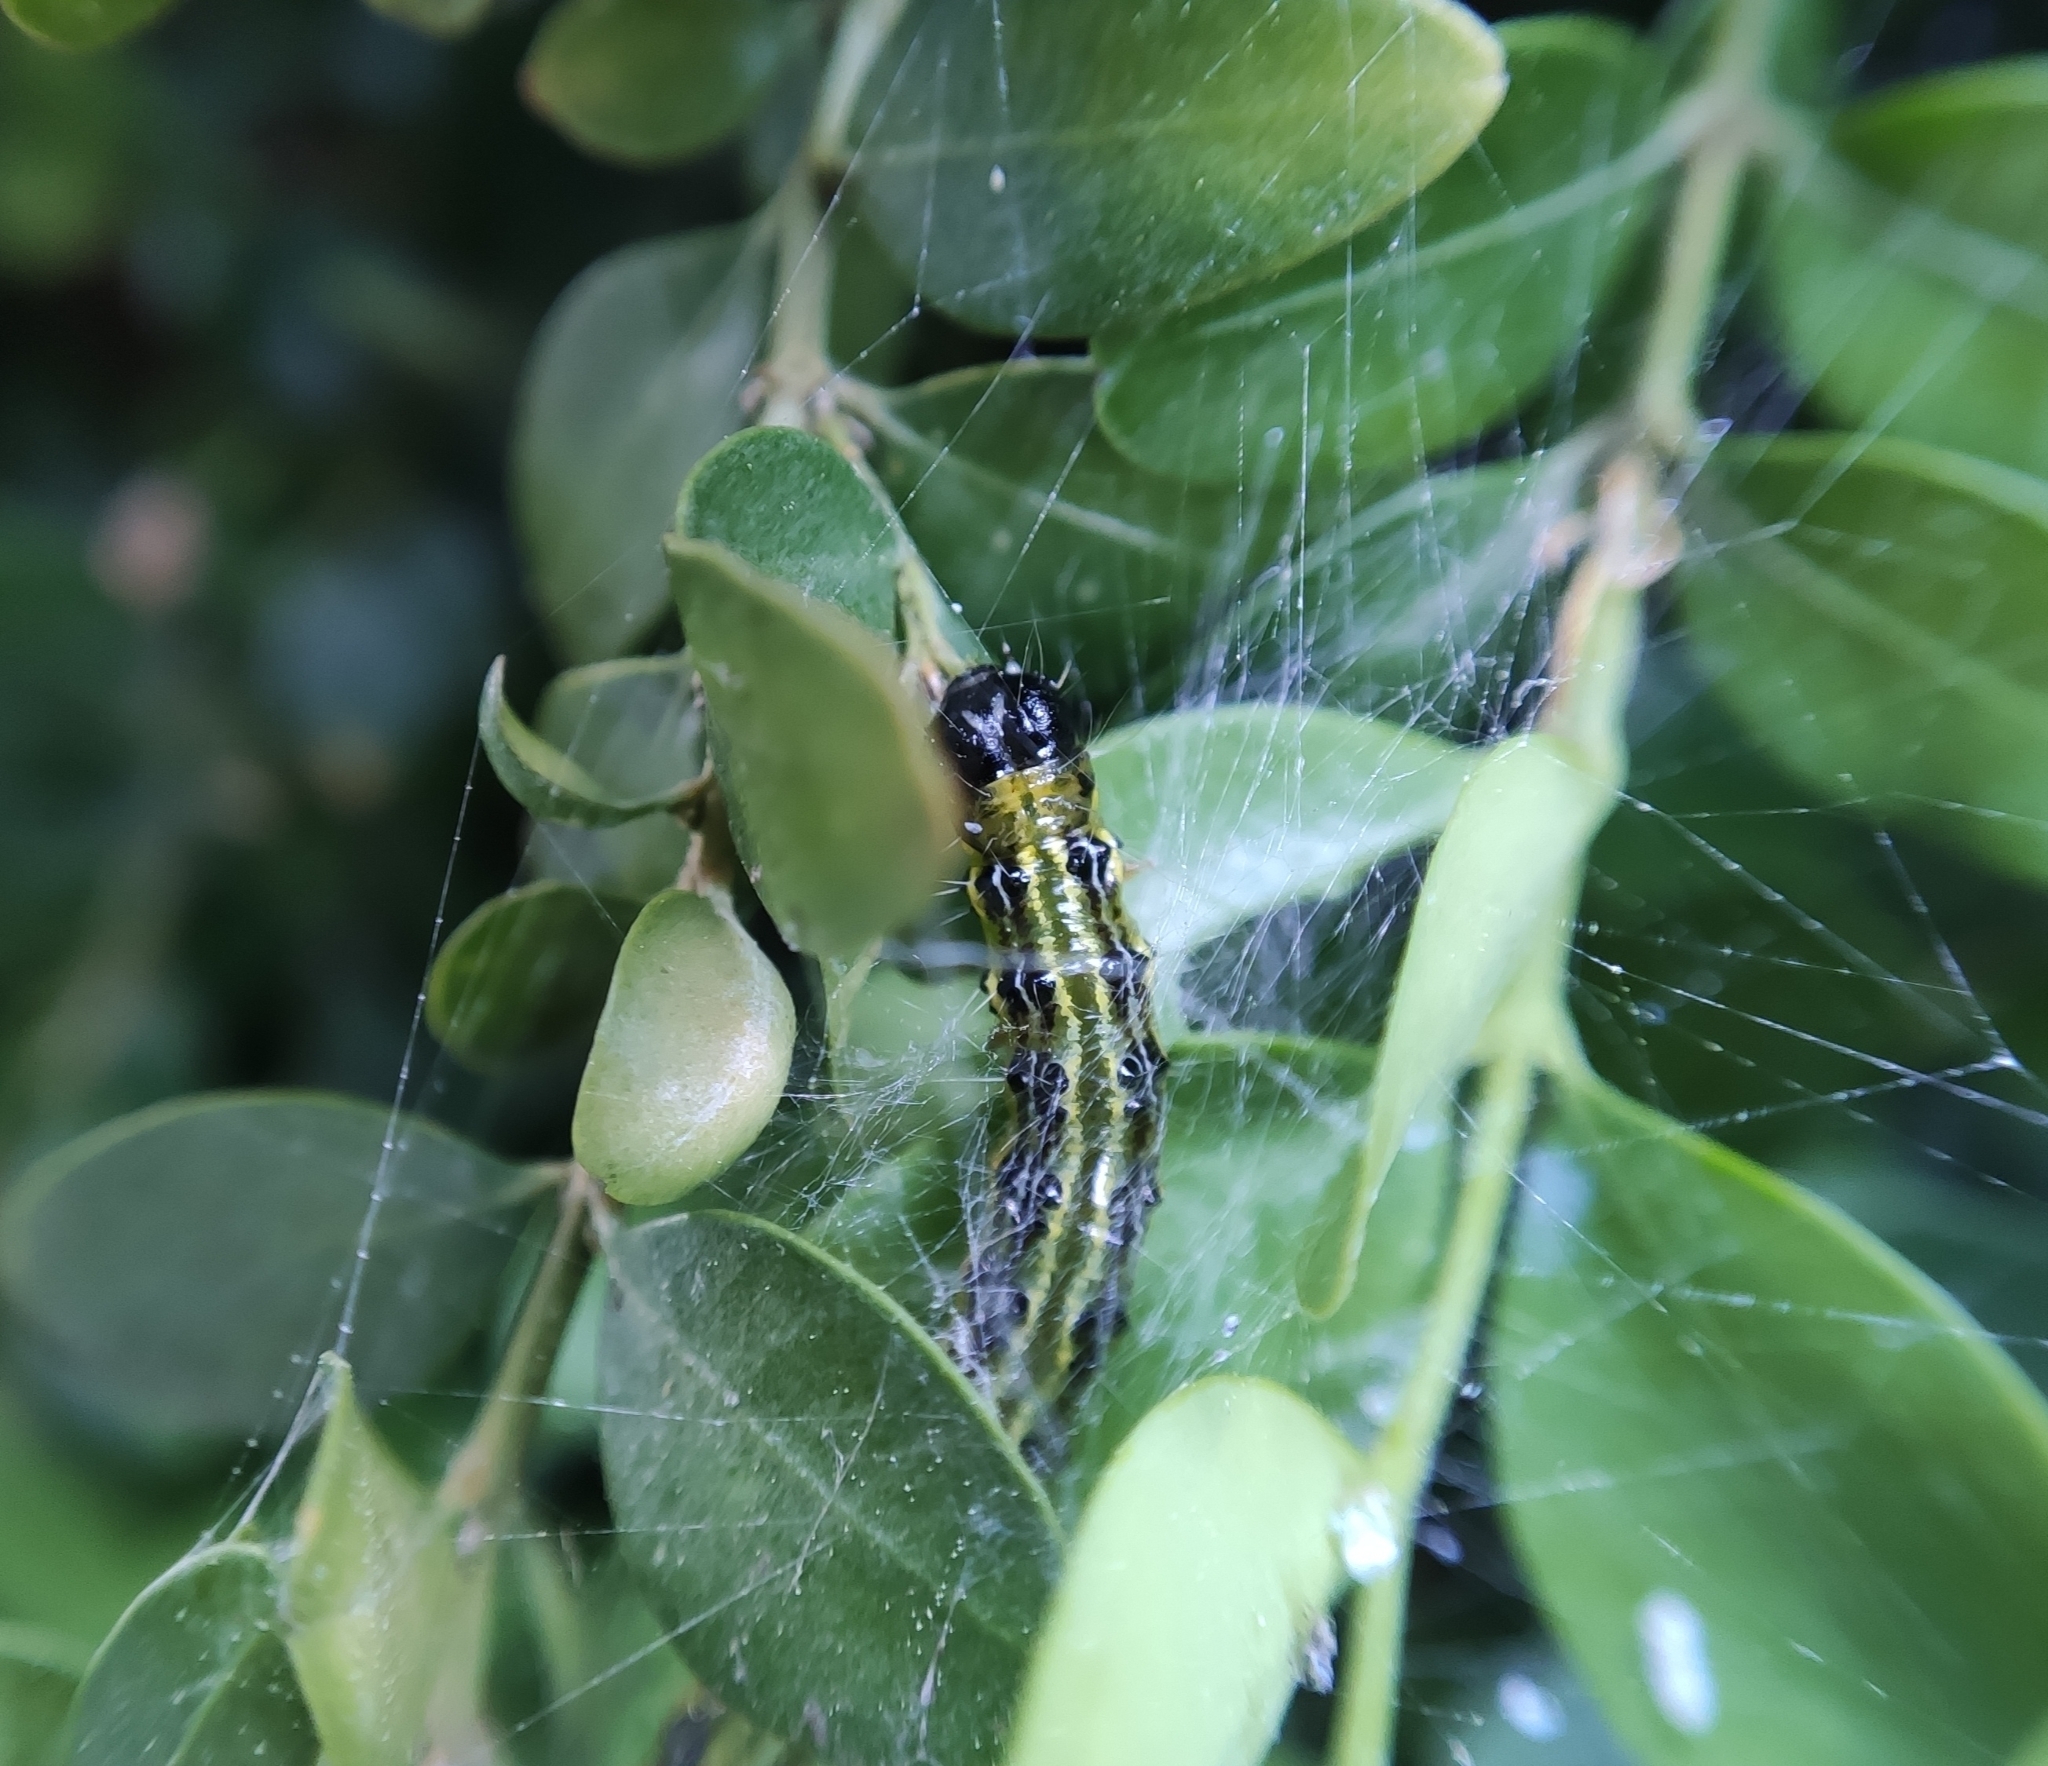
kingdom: Animalia
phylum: Arthropoda
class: Insecta
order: Lepidoptera
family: Crambidae
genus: Cydalima
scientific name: Cydalima perspectalis
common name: Box tree moth
